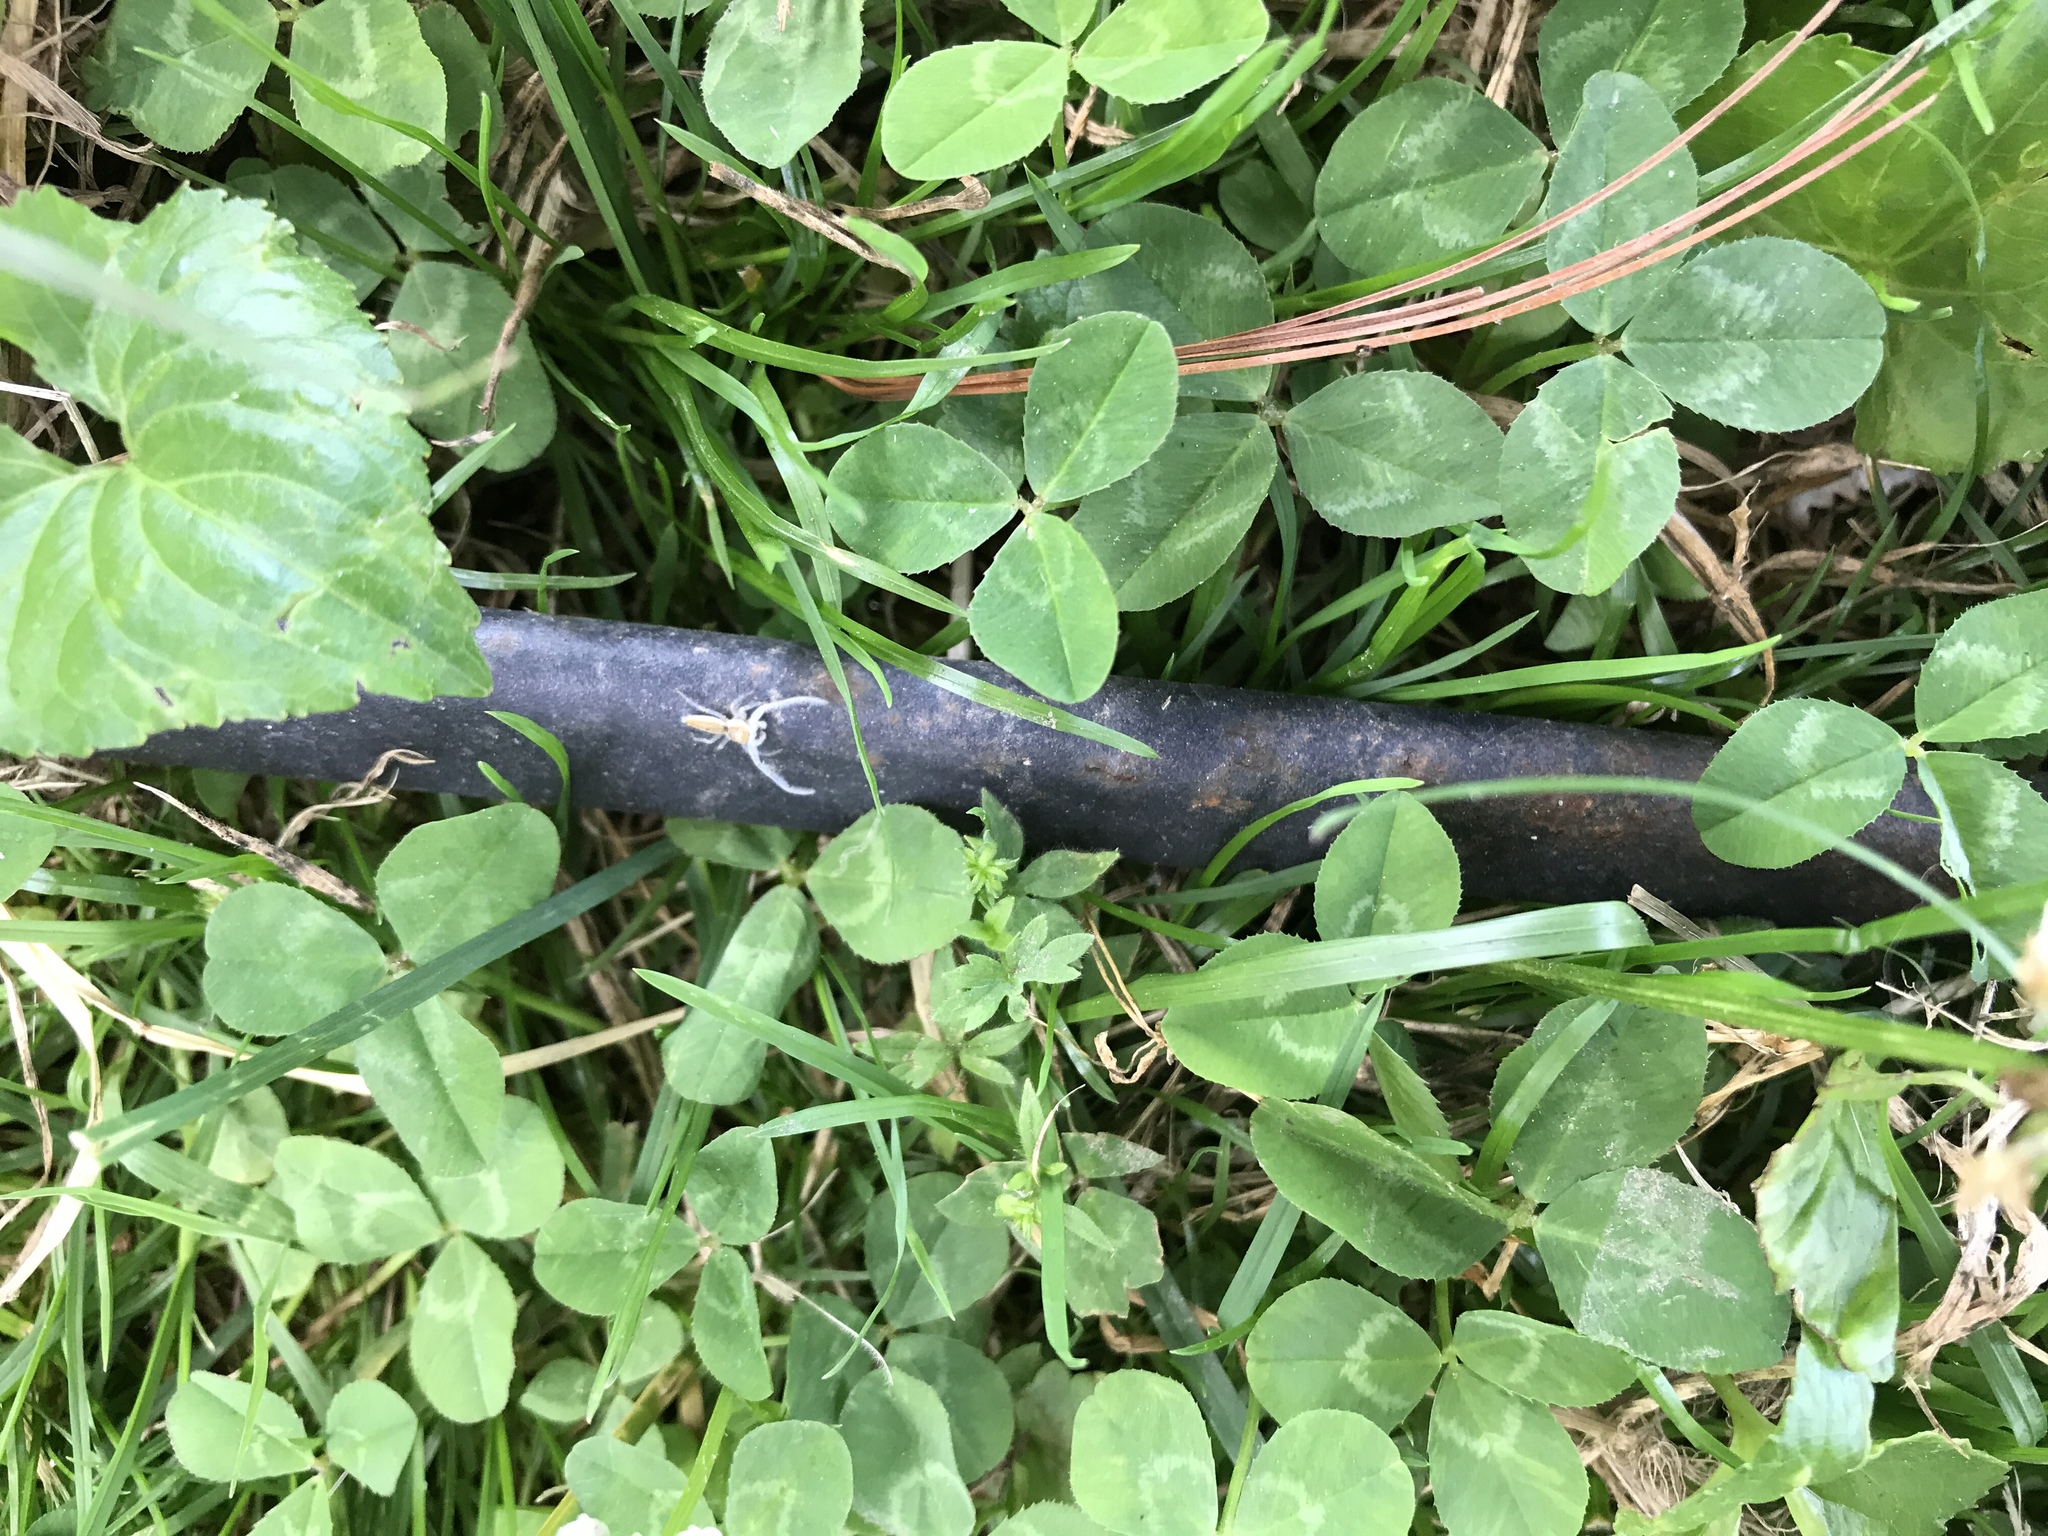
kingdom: Animalia
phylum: Arthropoda
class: Arachnida
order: Araneae
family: Salticidae
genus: Hentzia
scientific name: Hentzia mitrata
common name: White-jawed jumping spider
